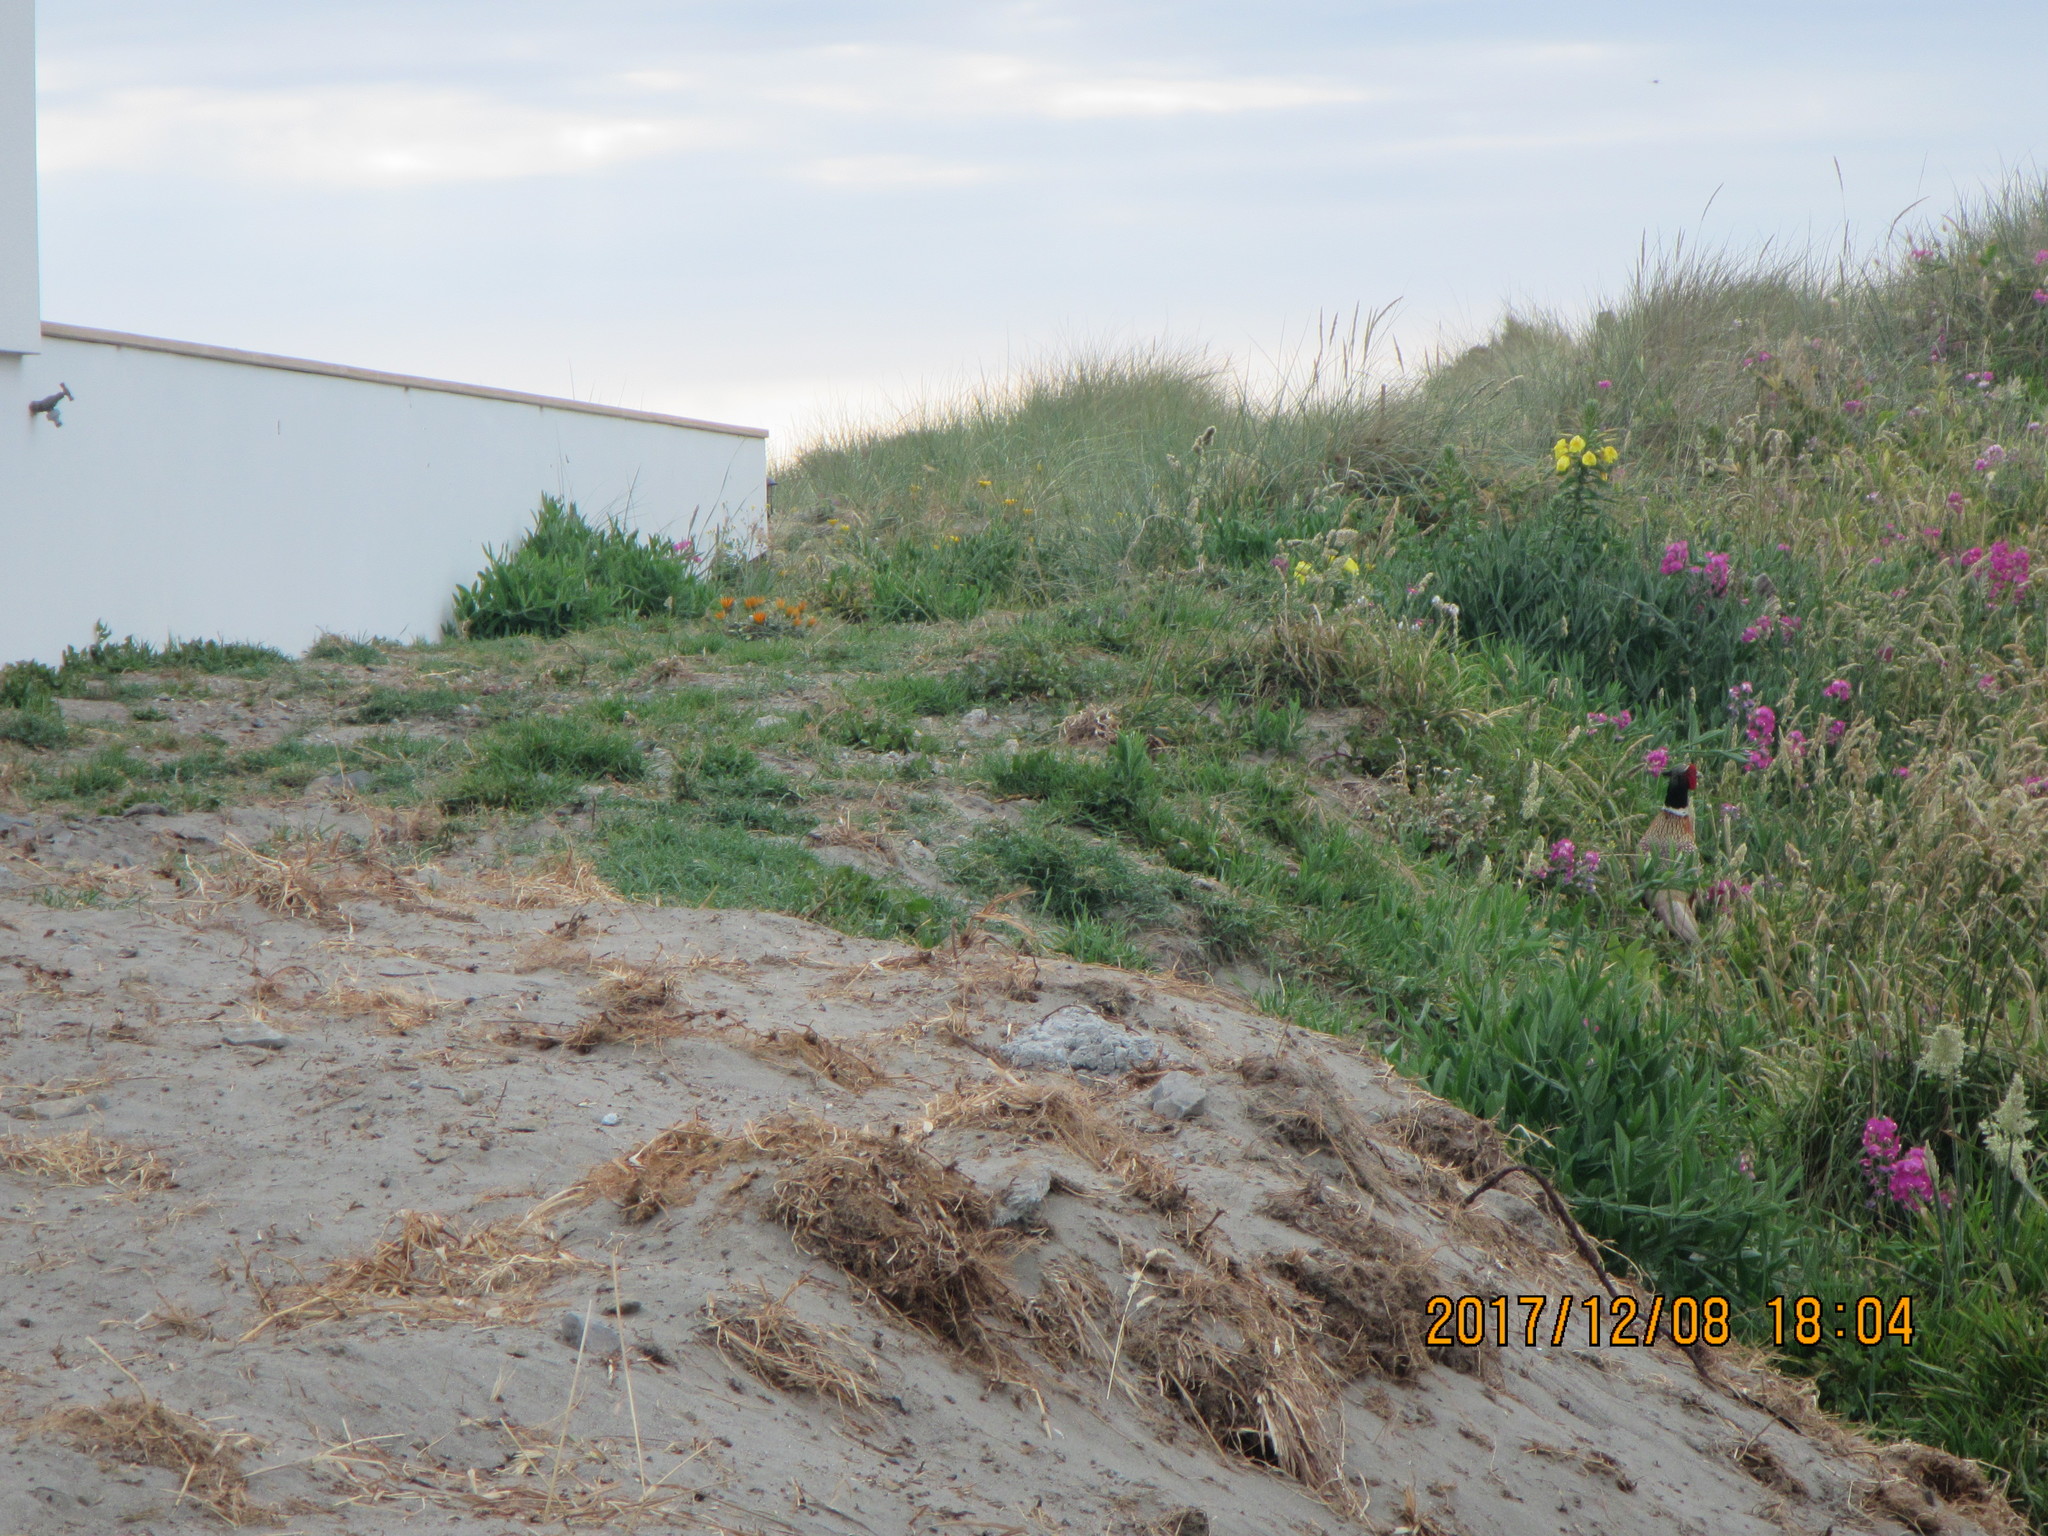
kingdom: Animalia
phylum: Chordata
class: Aves
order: Galliformes
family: Phasianidae
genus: Phasianus
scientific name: Phasianus colchicus
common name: Common pheasant
